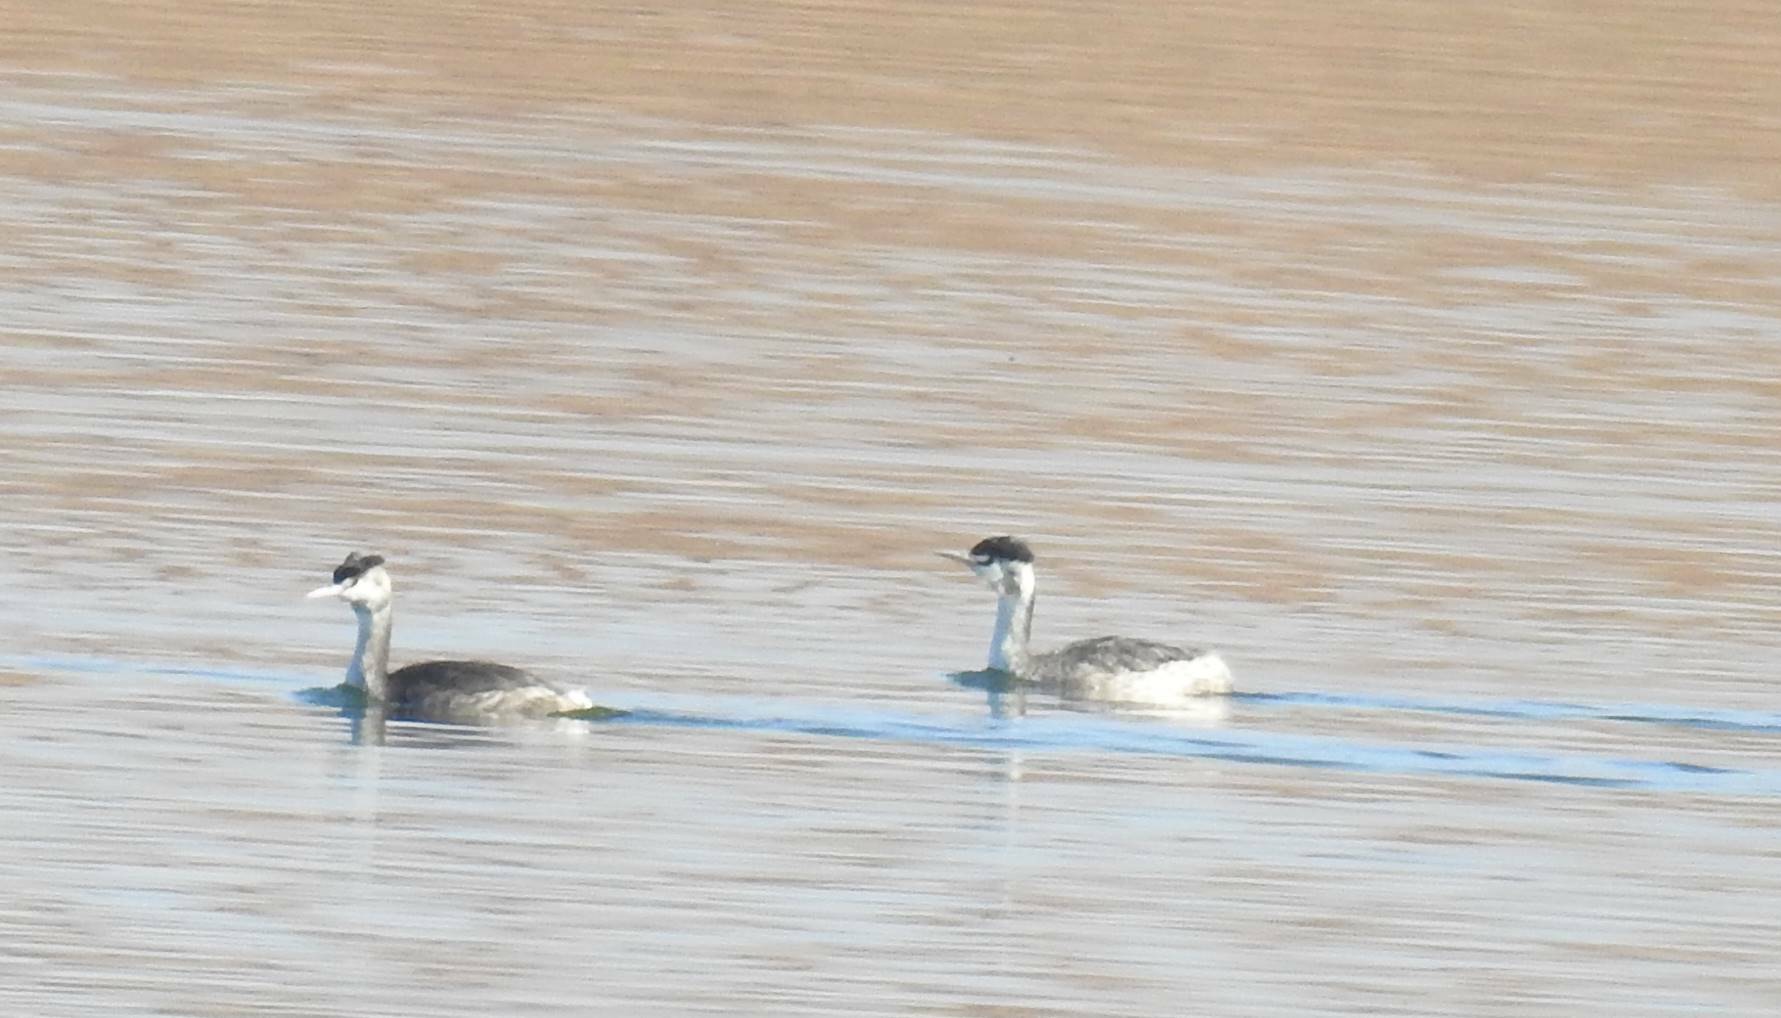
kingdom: Animalia
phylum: Chordata
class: Aves
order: Podicipediformes
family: Podicipedidae
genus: Podiceps
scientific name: Podiceps cristatus
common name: Great crested grebe
